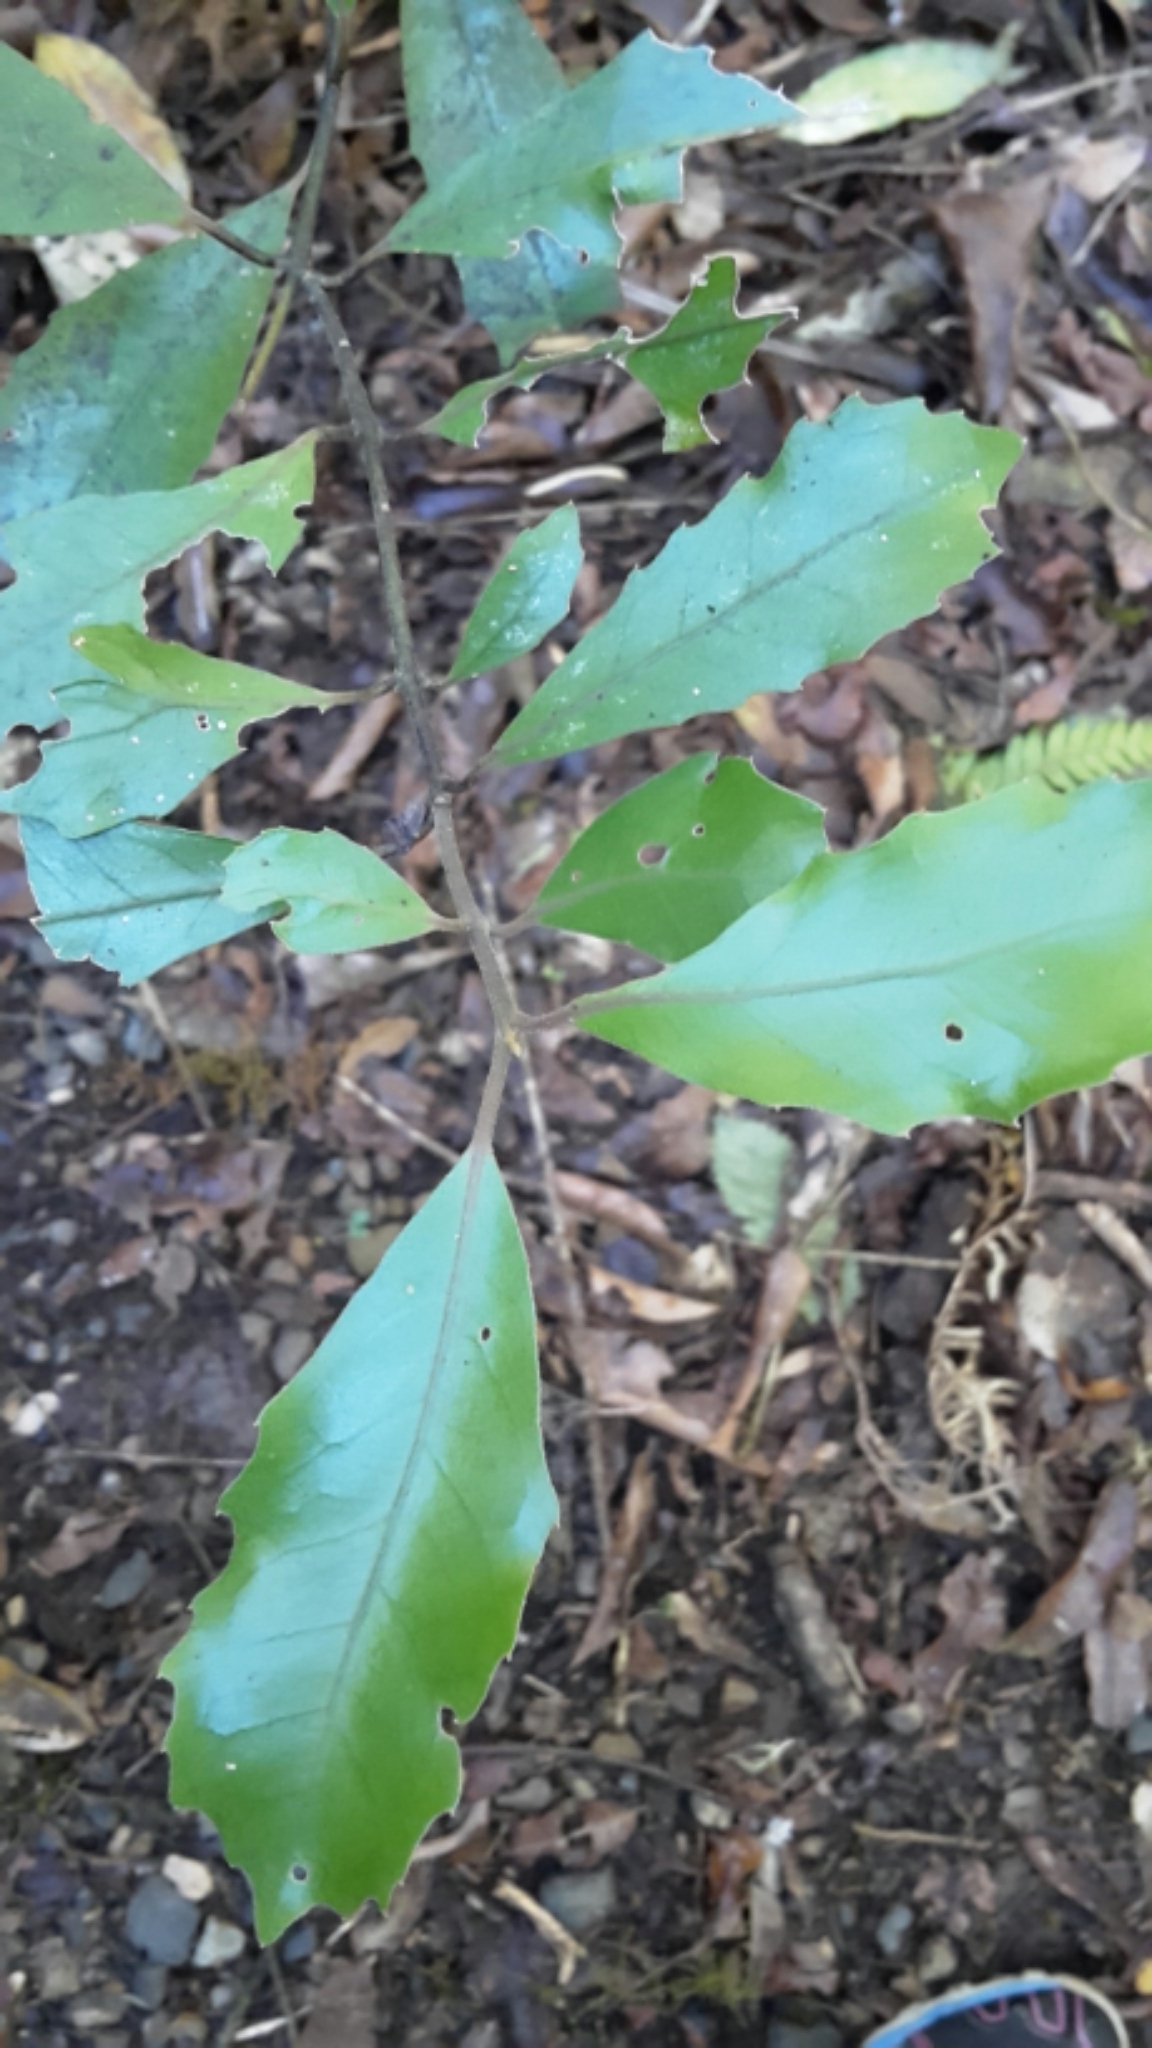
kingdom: Plantae
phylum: Tracheophyta
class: Magnoliopsida
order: Laurales
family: Monimiaceae
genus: Hedycarya
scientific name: Hedycarya arborea
